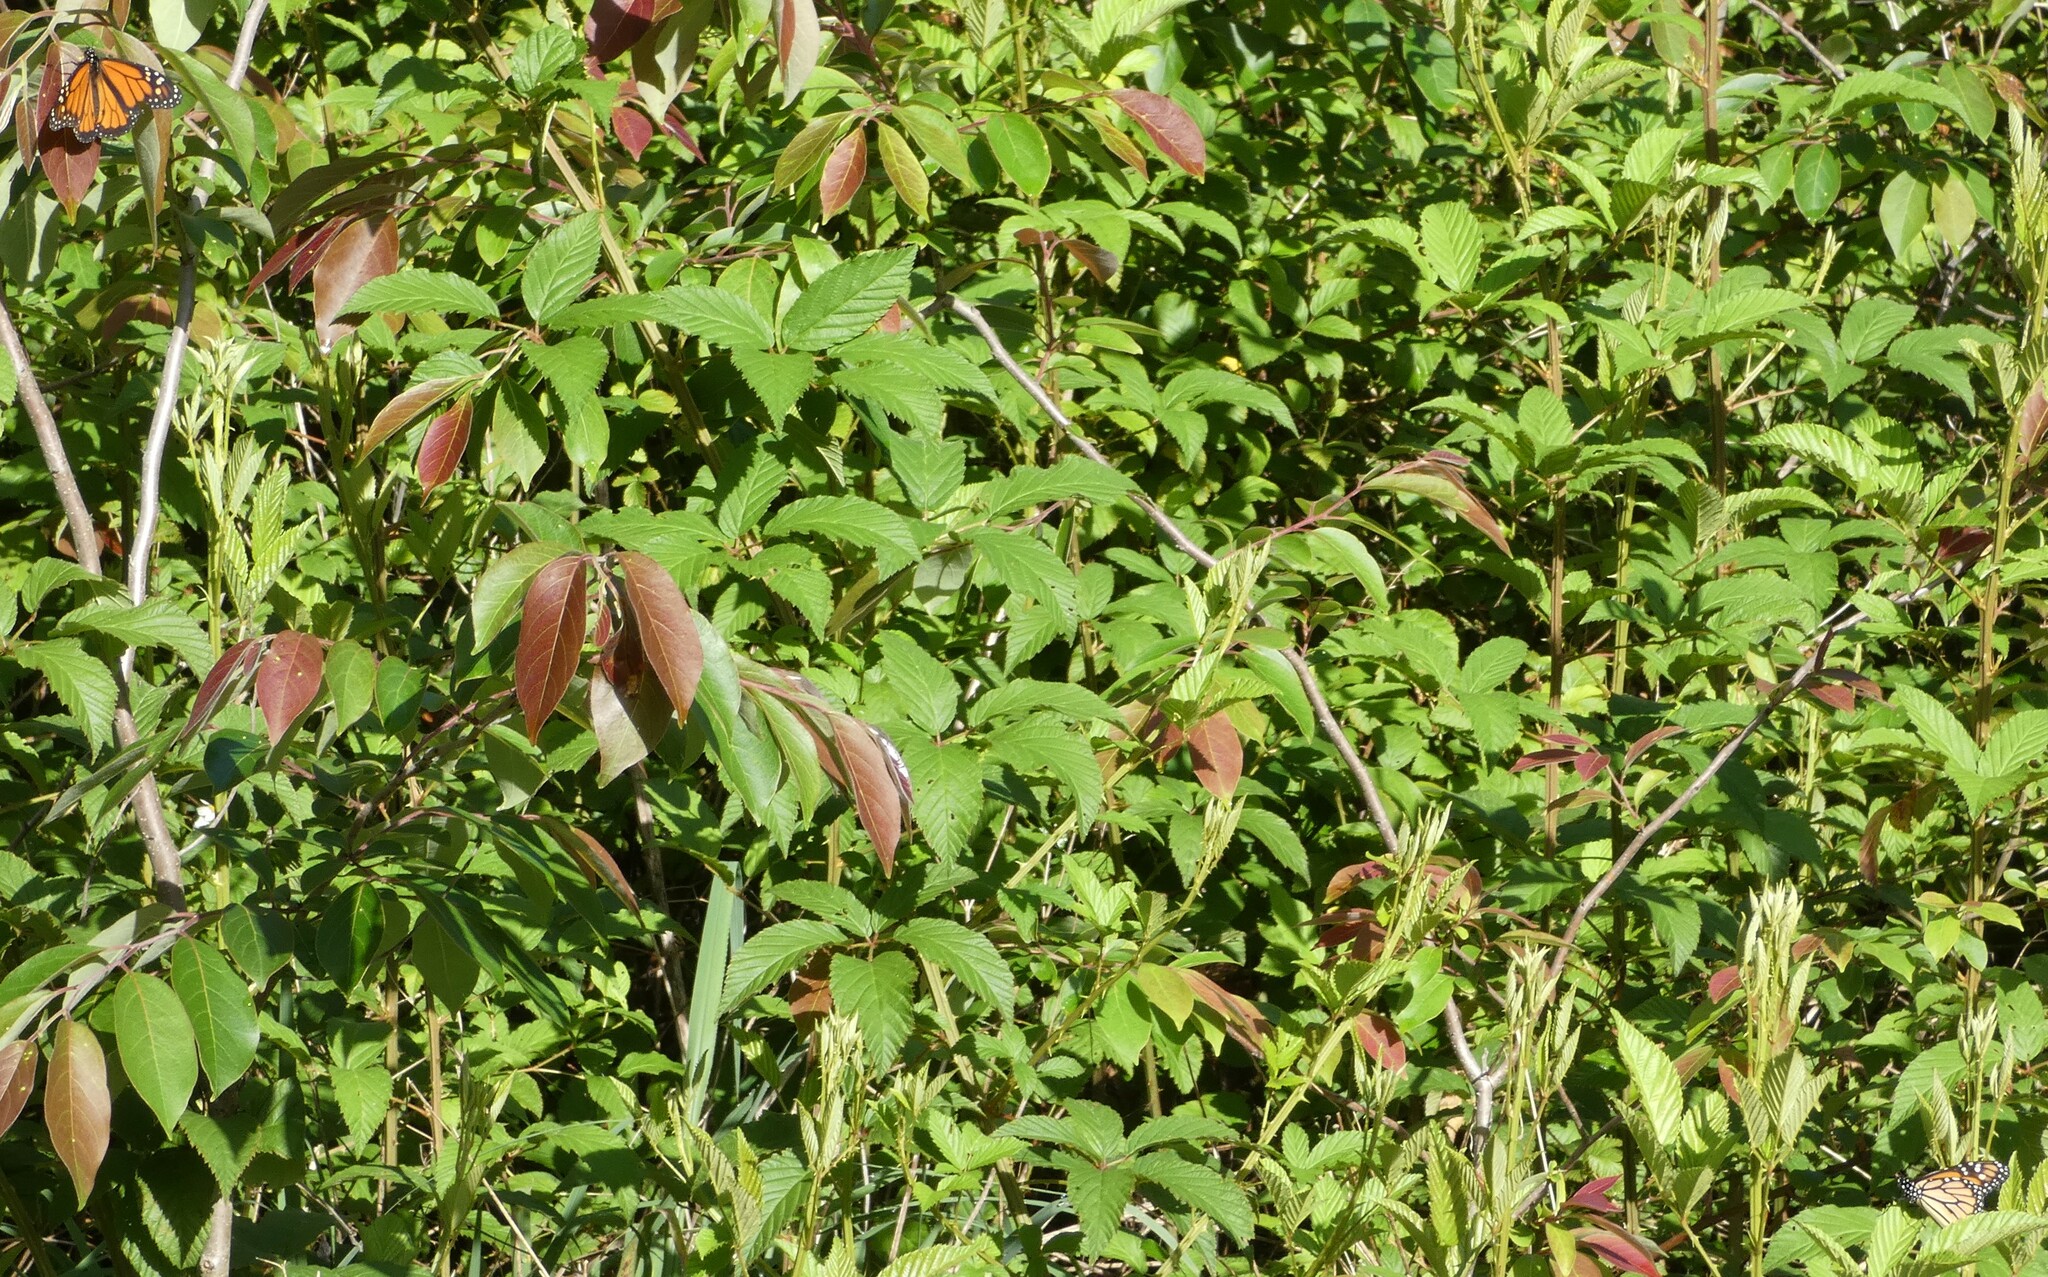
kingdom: Animalia
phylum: Arthropoda
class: Insecta
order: Lepidoptera
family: Nymphalidae
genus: Danaus
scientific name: Danaus plexippus
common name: Monarch
